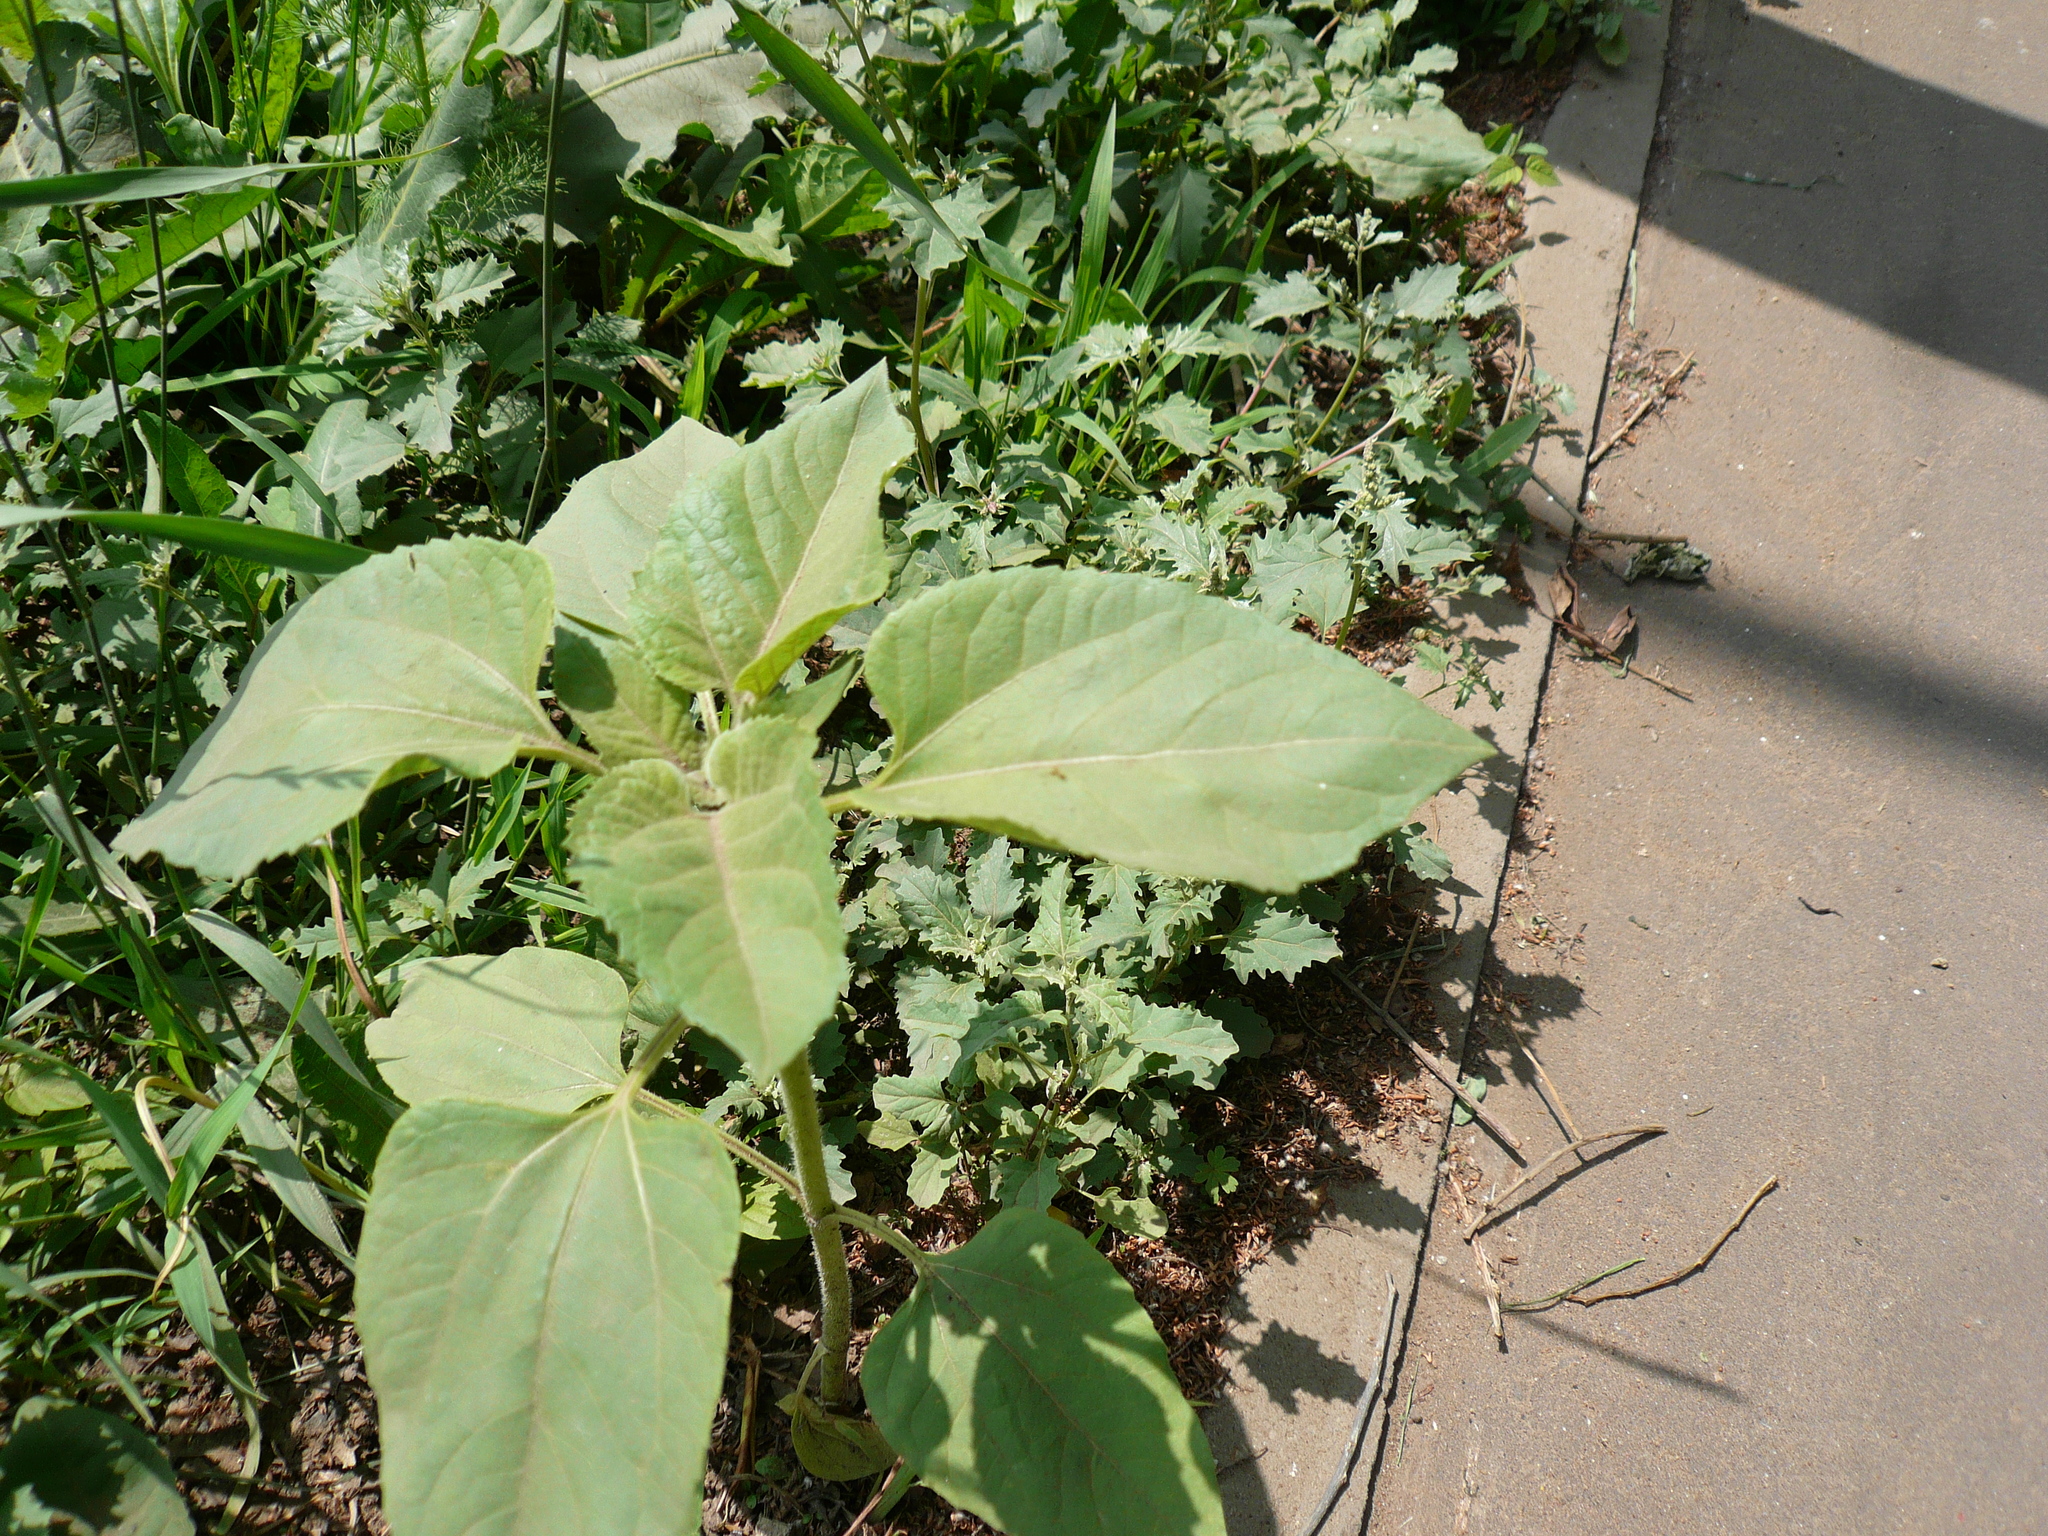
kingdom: Plantae
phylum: Tracheophyta
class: Magnoliopsida
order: Asterales
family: Asteraceae
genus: Helianthus
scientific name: Helianthus annuus
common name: Sunflower
